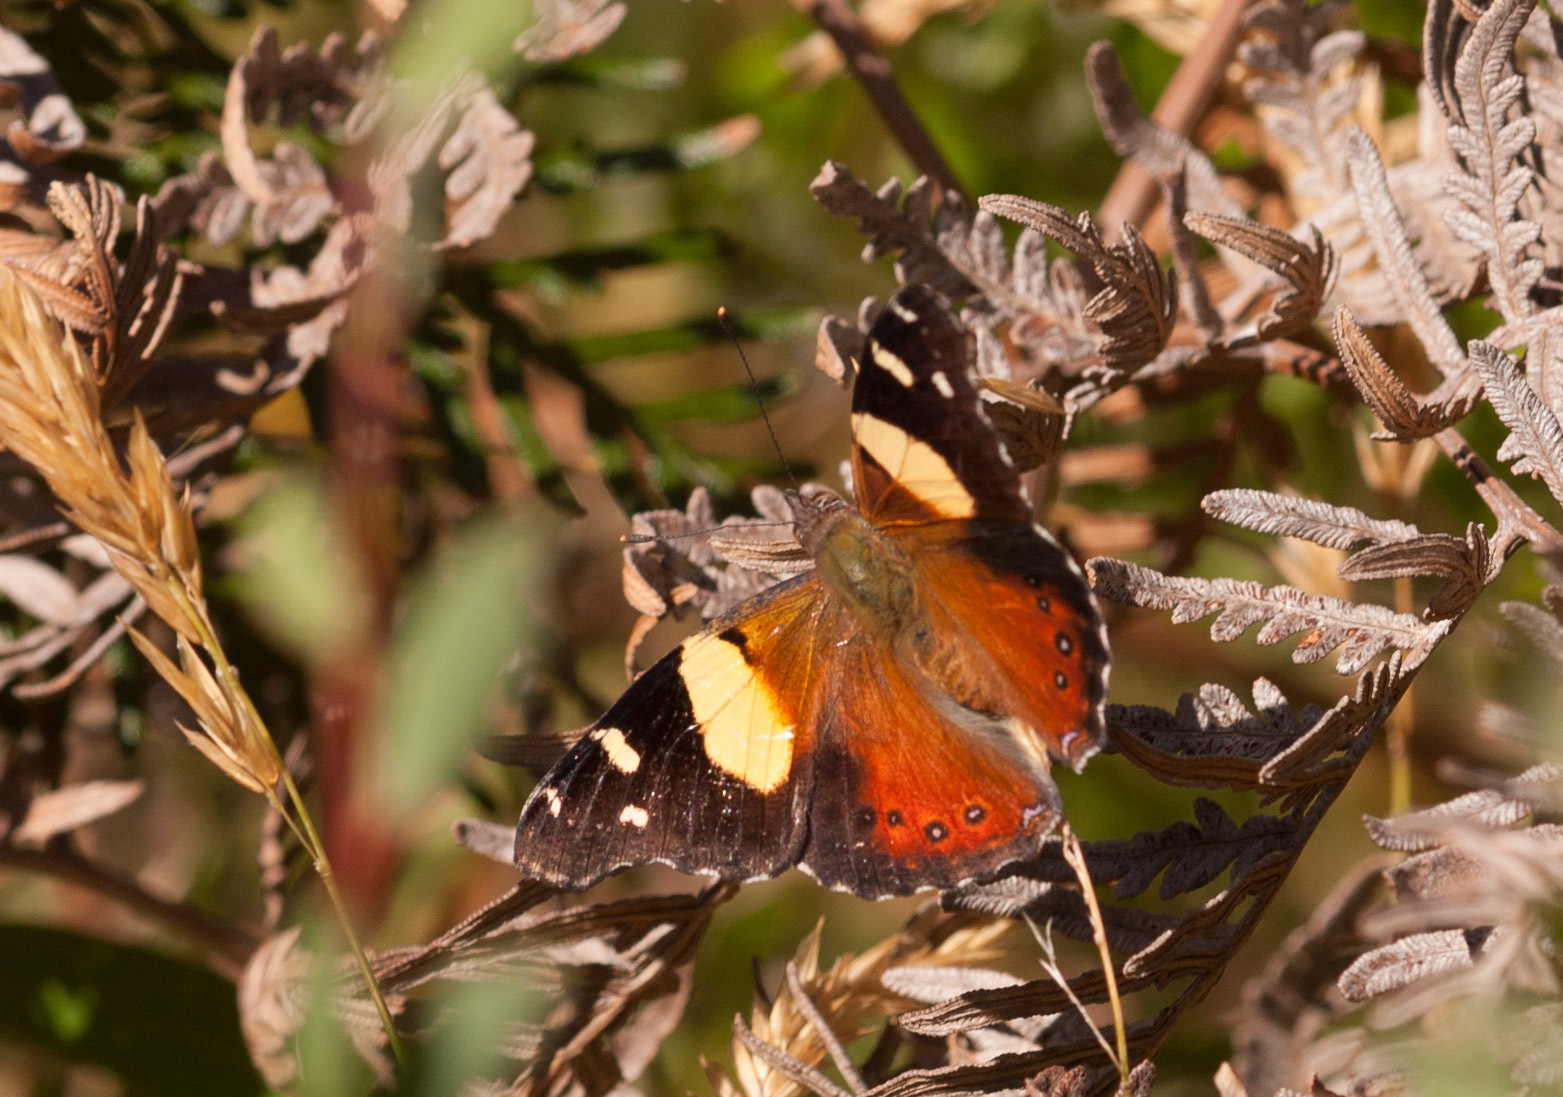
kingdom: Animalia
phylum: Arthropoda
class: Insecta
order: Lepidoptera
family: Nymphalidae
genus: Vanessa
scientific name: Vanessa itea
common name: Yellow admiral
